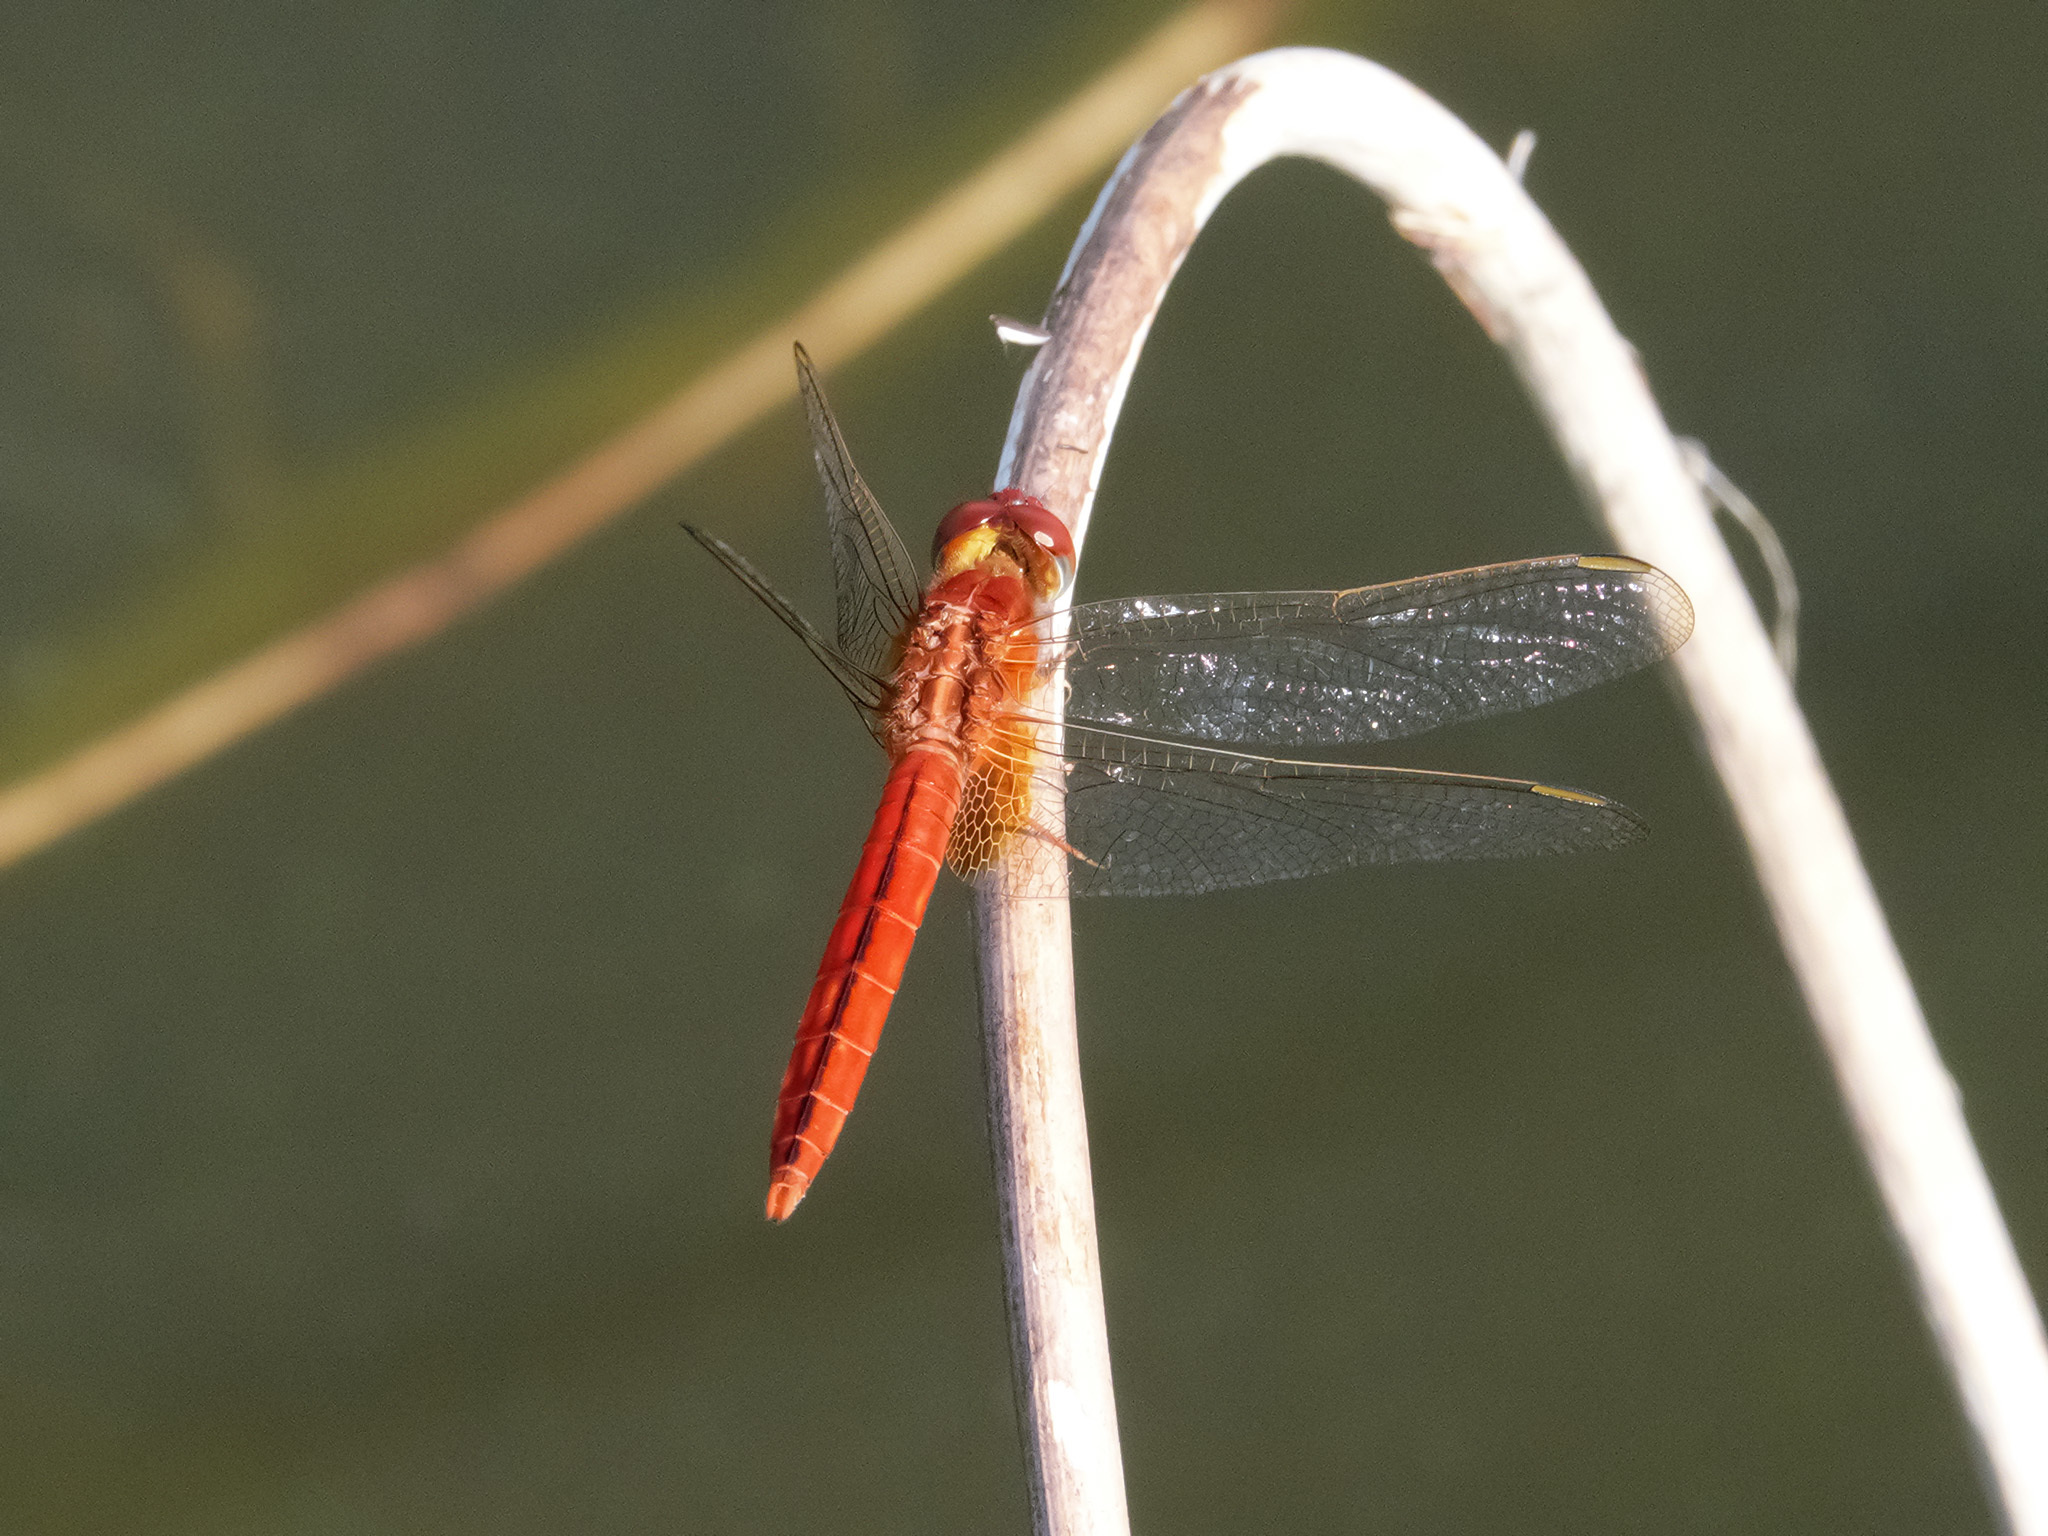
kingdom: Animalia
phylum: Arthropoda
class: Insecta
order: Odonata
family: Libellulidae
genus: Crocothemis
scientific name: Crocothemis servilia
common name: Scarlet skimmer
